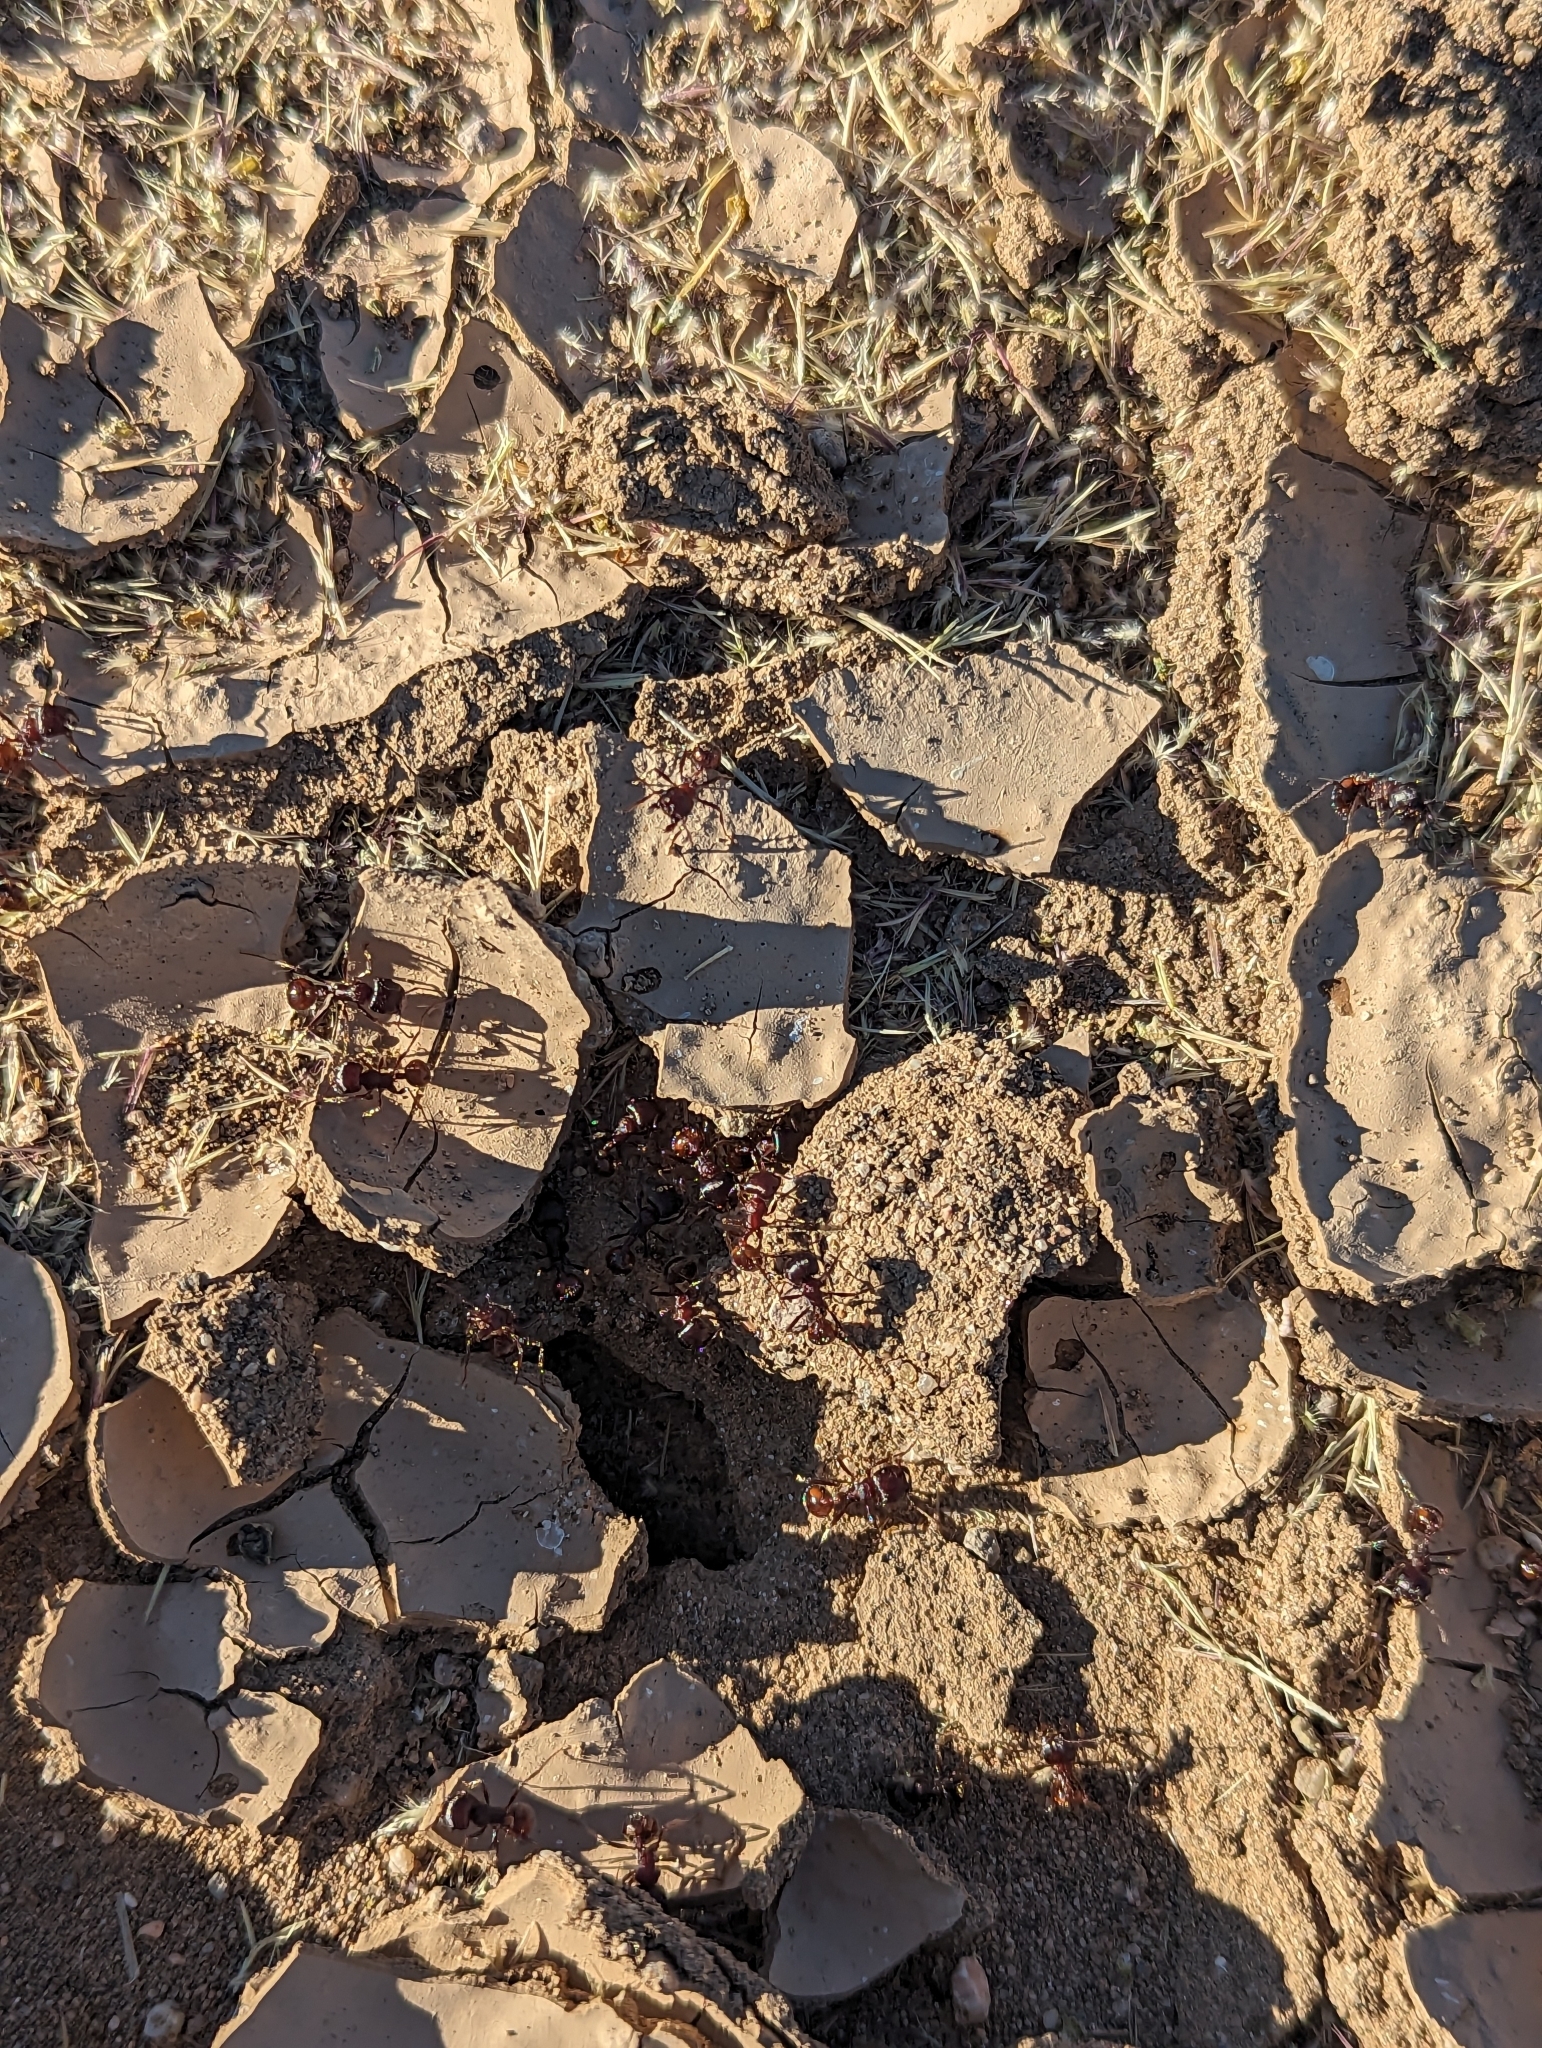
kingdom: Animalia
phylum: Arthropoda
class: Insecta
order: Hymenoptera
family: Formicidae
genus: Pogonomyrmex
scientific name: Pogonomyrmex rugosus
